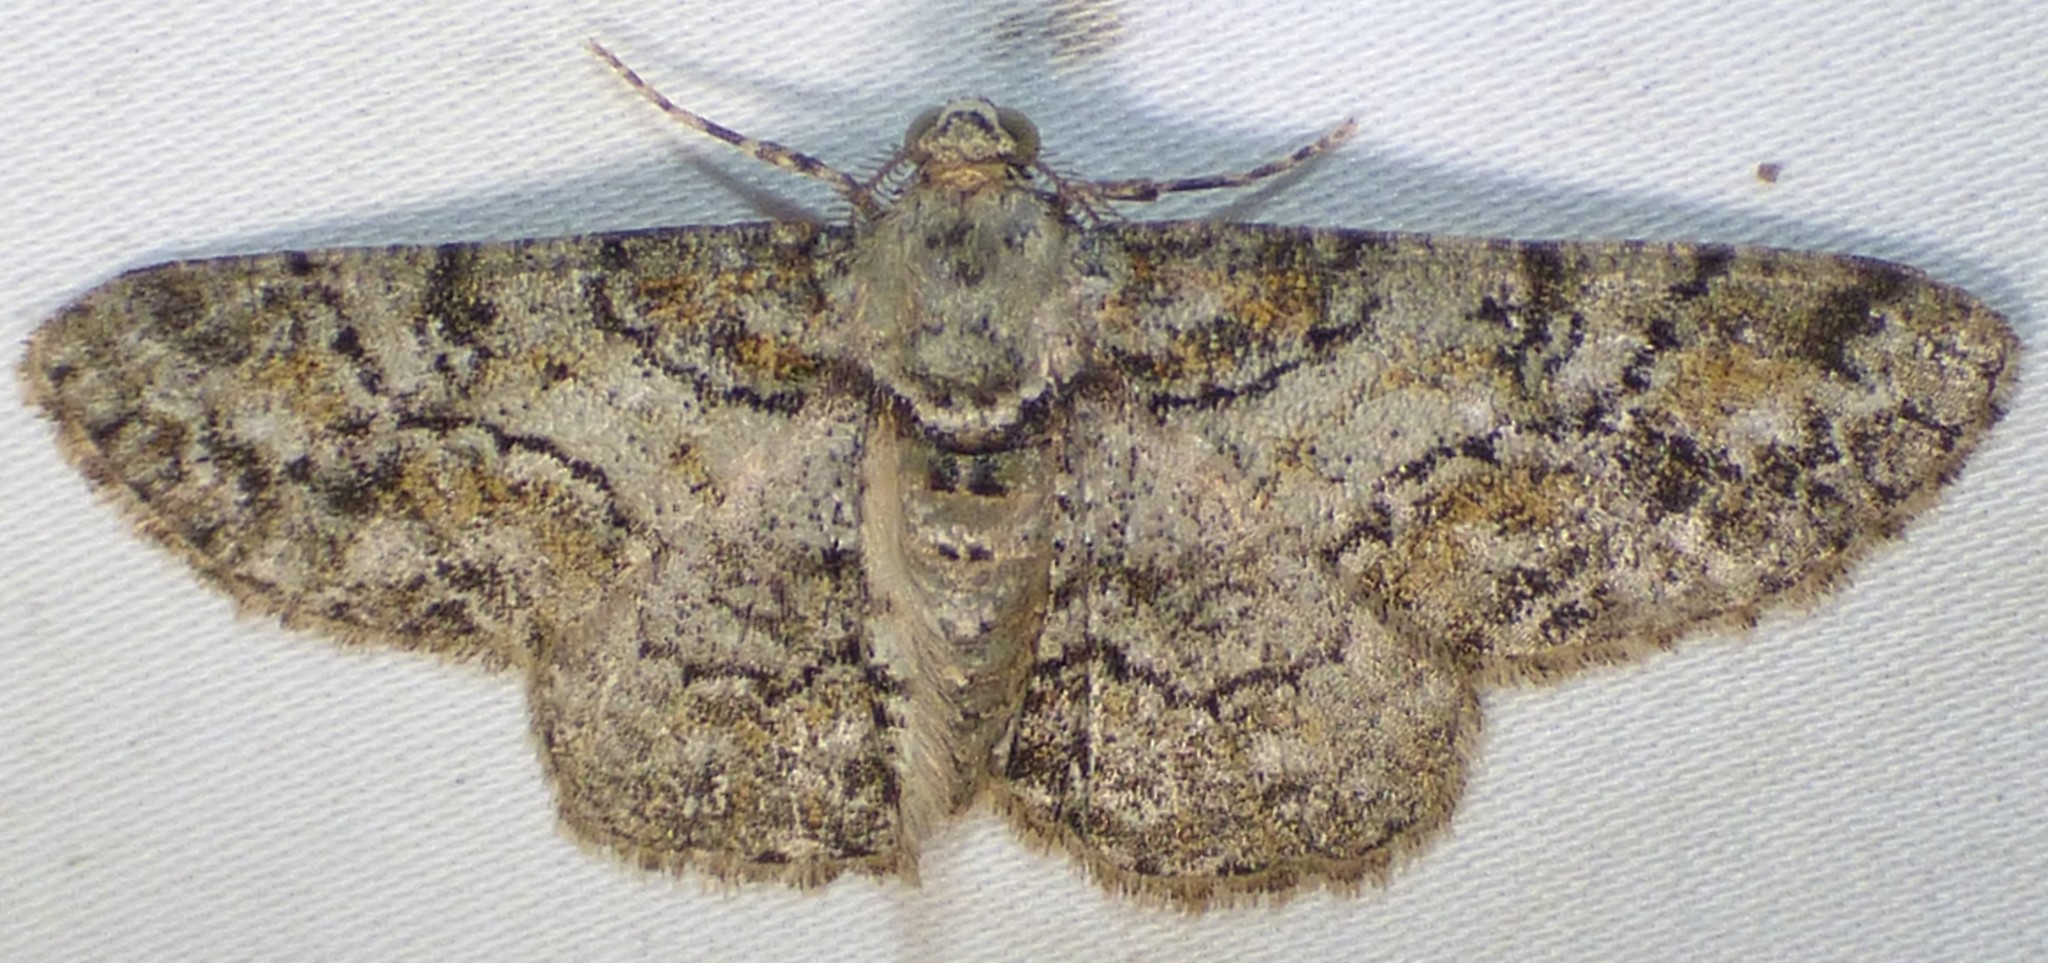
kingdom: Animalia
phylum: Arthropoda
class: Insecta
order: Lepidoptera
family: Geometridae
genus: Cleora
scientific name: Cleora sublunaria
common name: Double-lined gray
